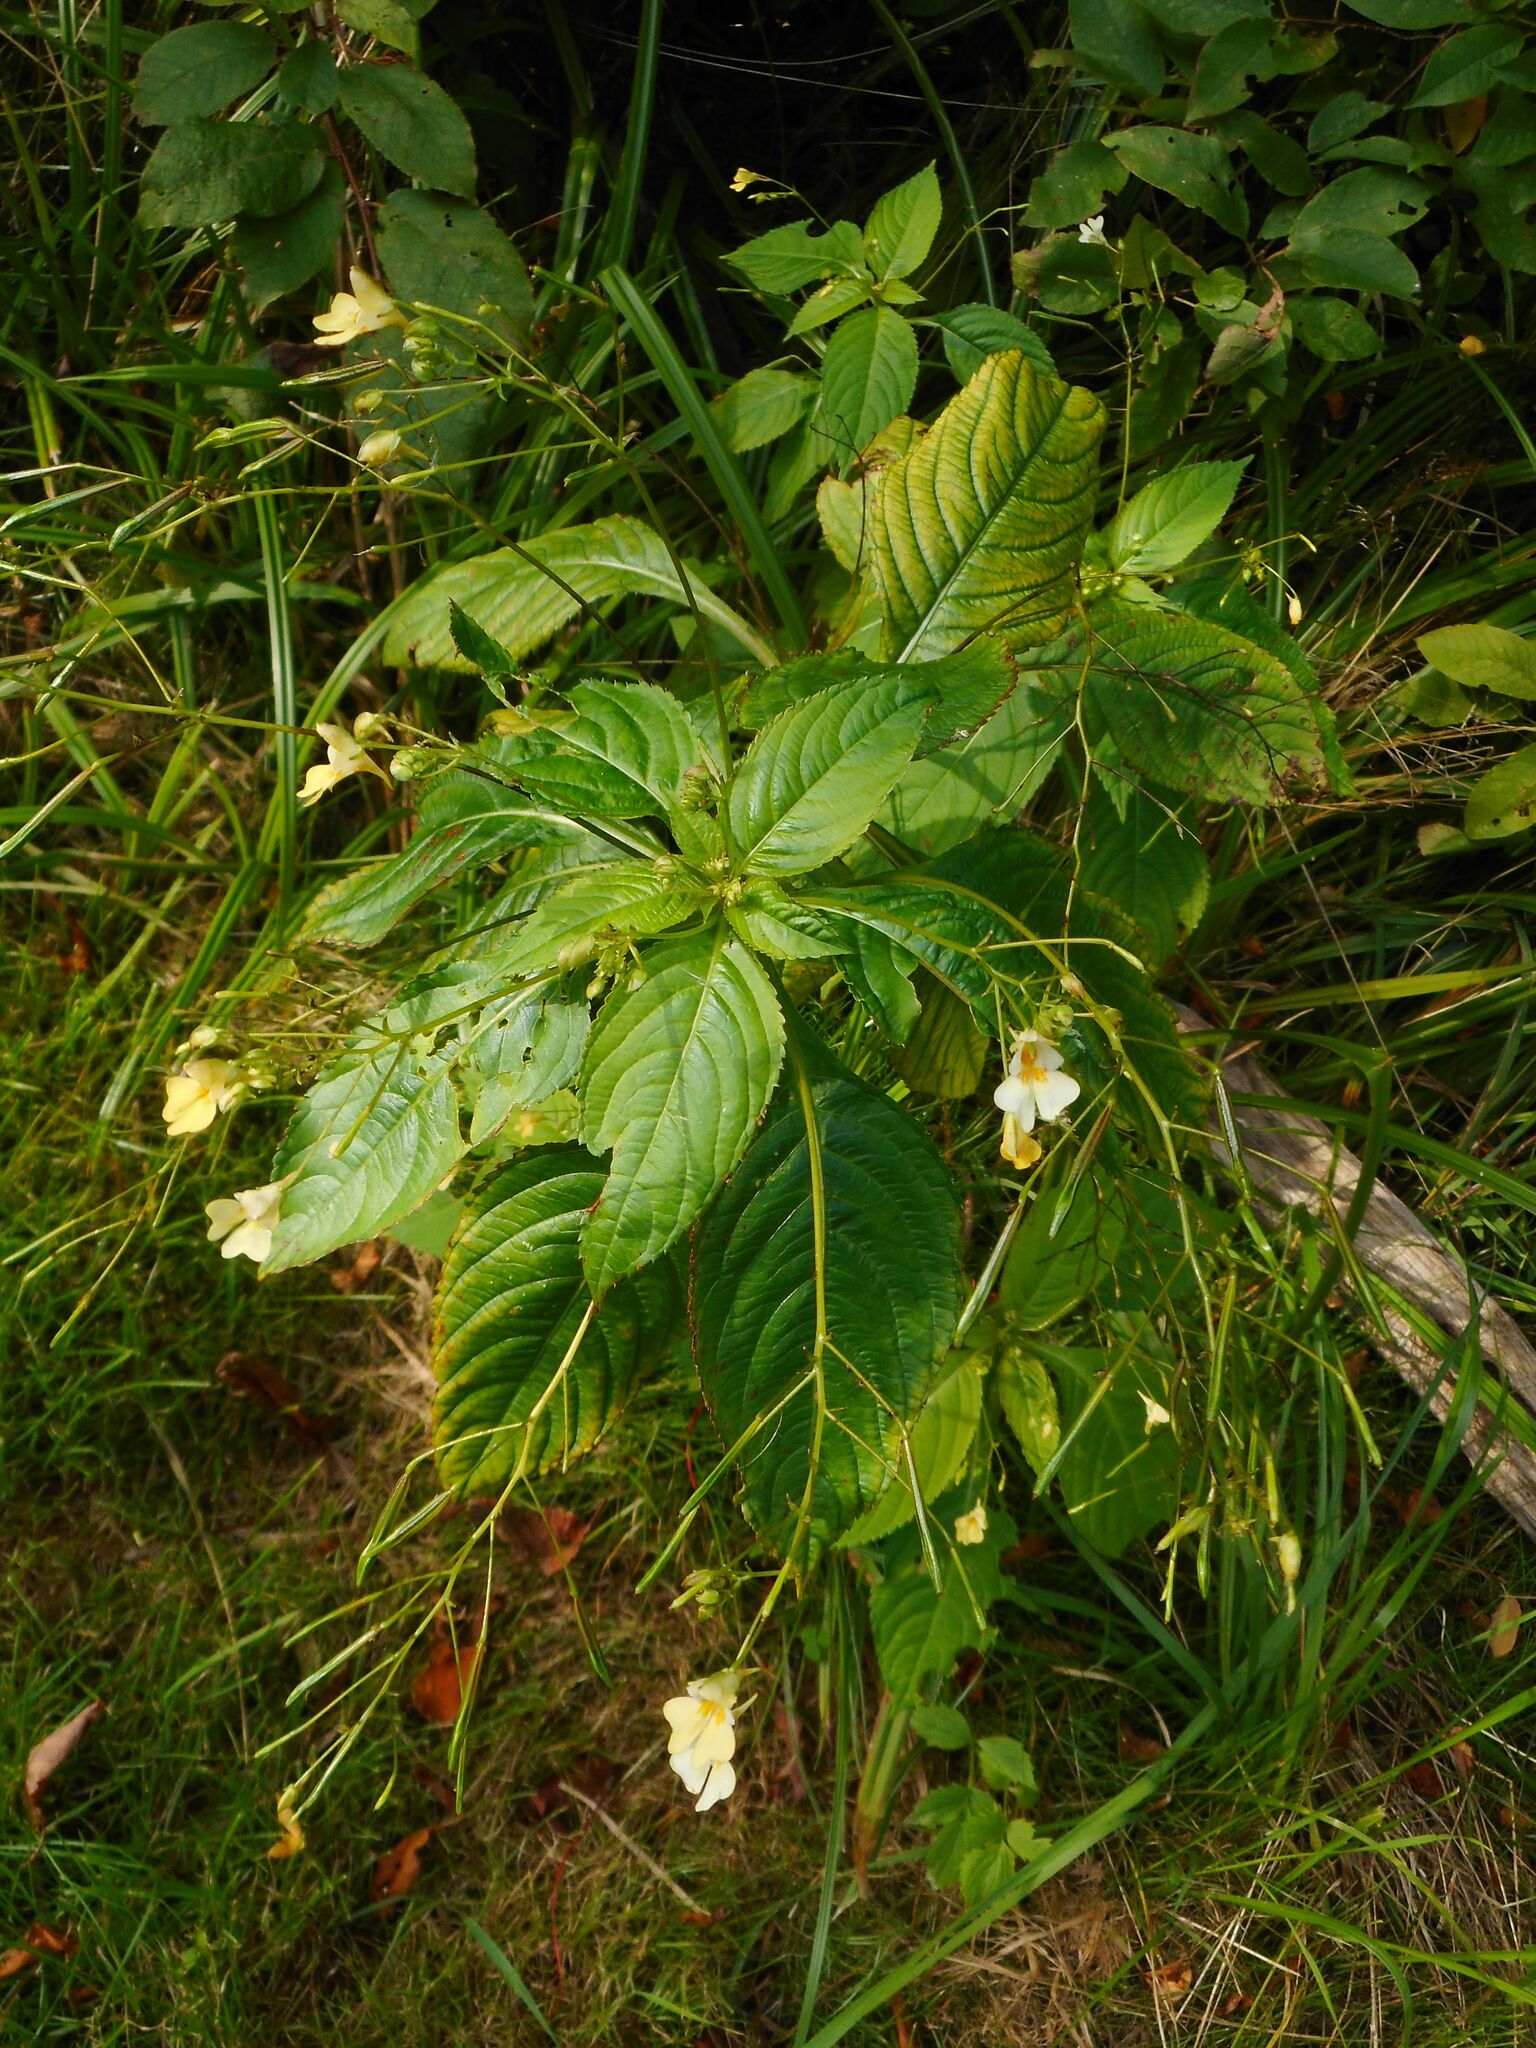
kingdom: Plantae
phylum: Tracheophyta
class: Magnoliopsida
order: Ericales
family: Balsaminaceae
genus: Impatiens
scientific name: Impatiens parviflora
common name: Small balsam
